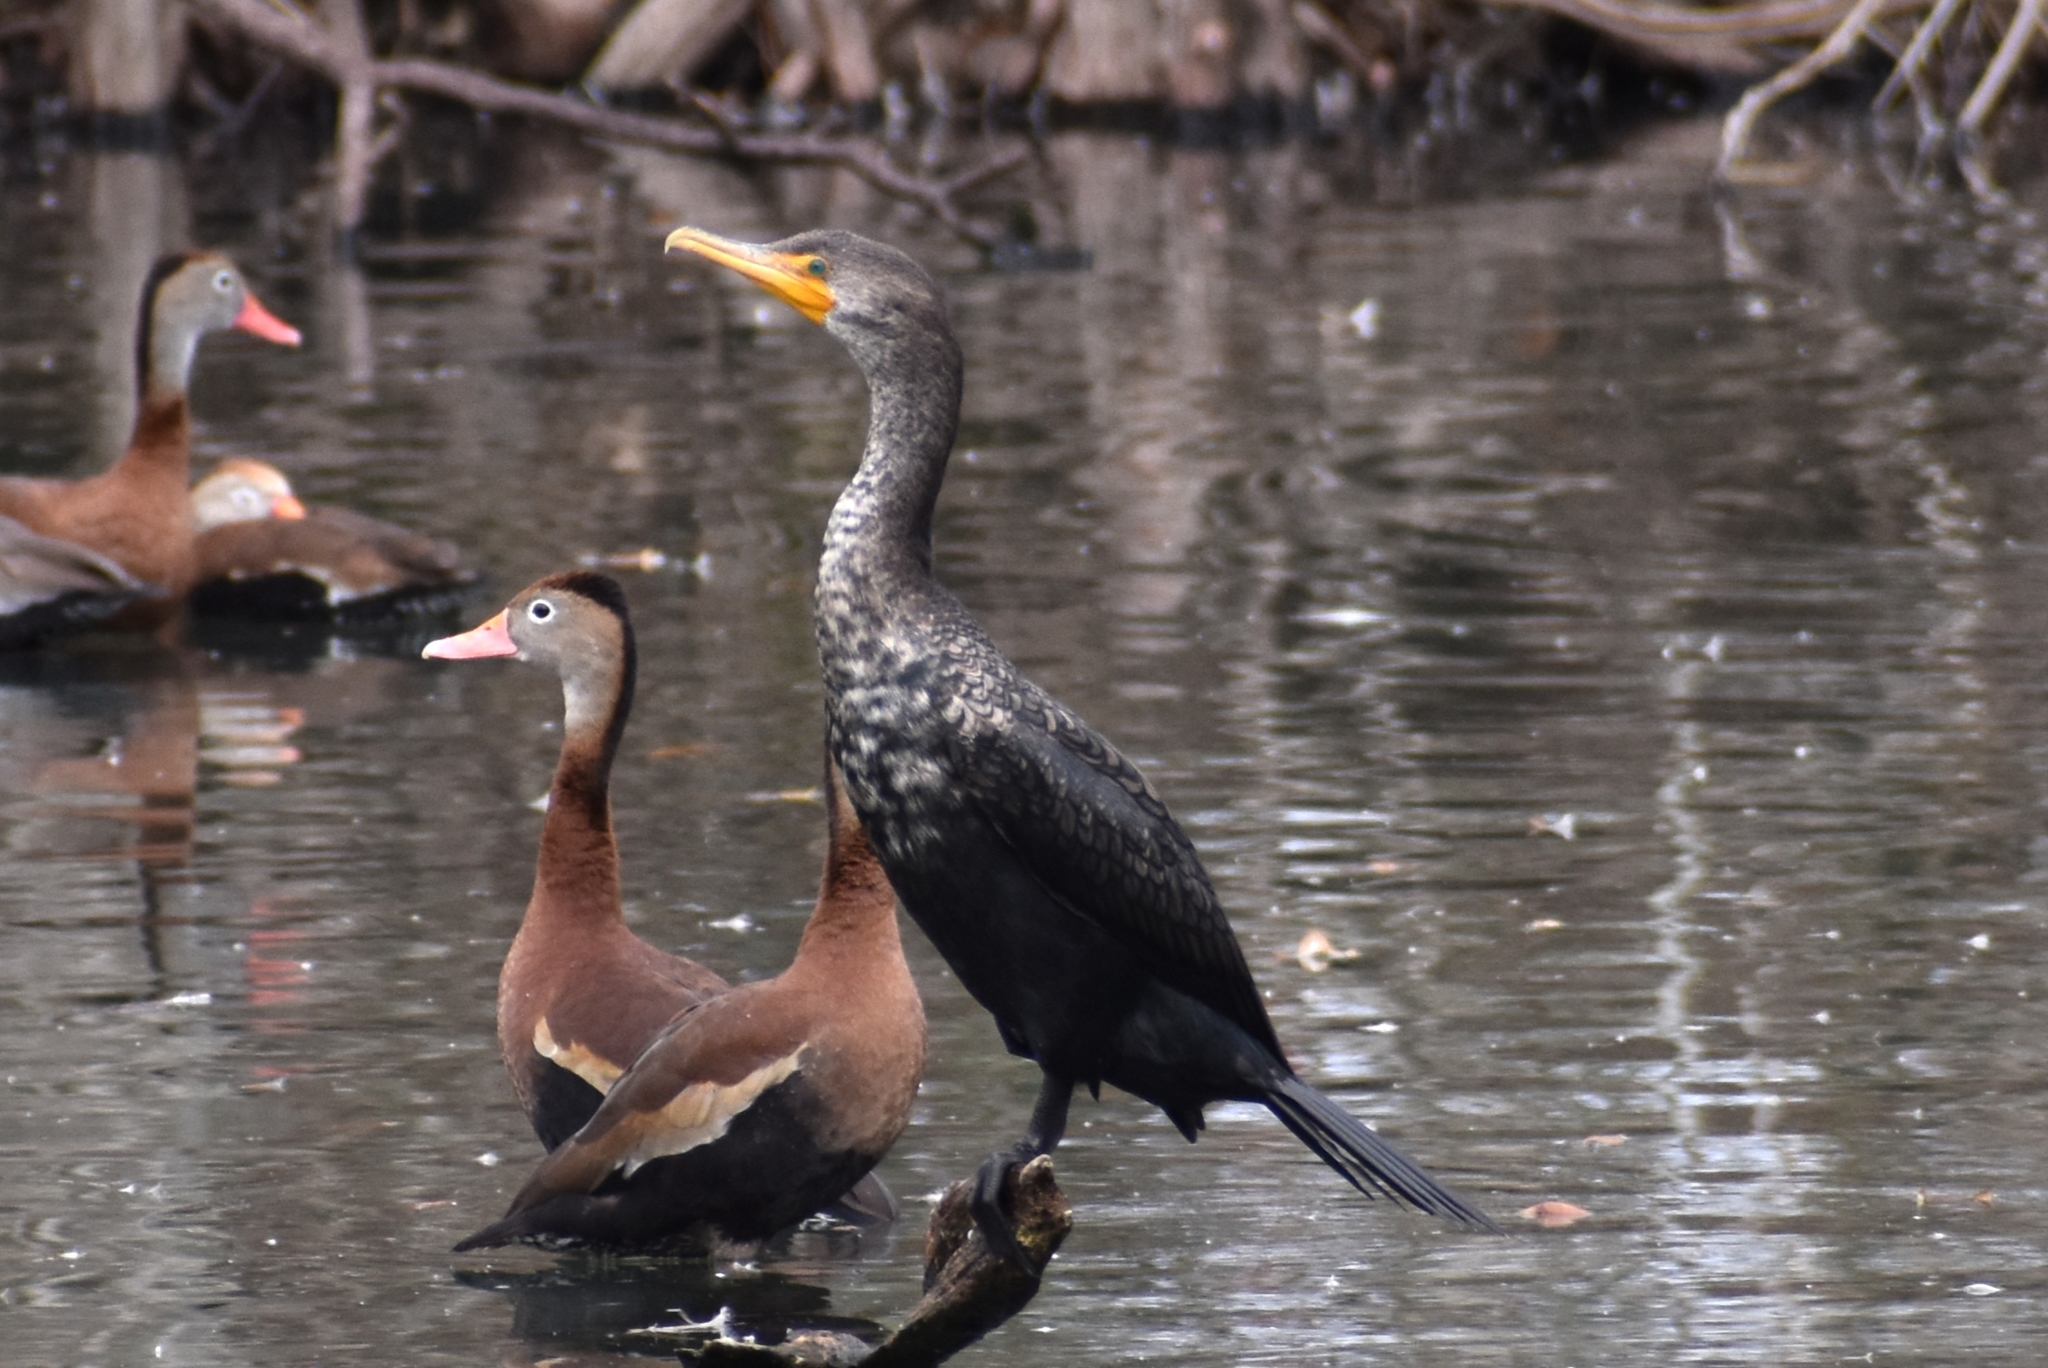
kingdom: Animalia
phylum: Chordata
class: Aves
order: Suliformes
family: Phalacrocoracidae
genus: Phalacrocorax
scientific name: Phalacrocorax auritus
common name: Double-crested cormorant
